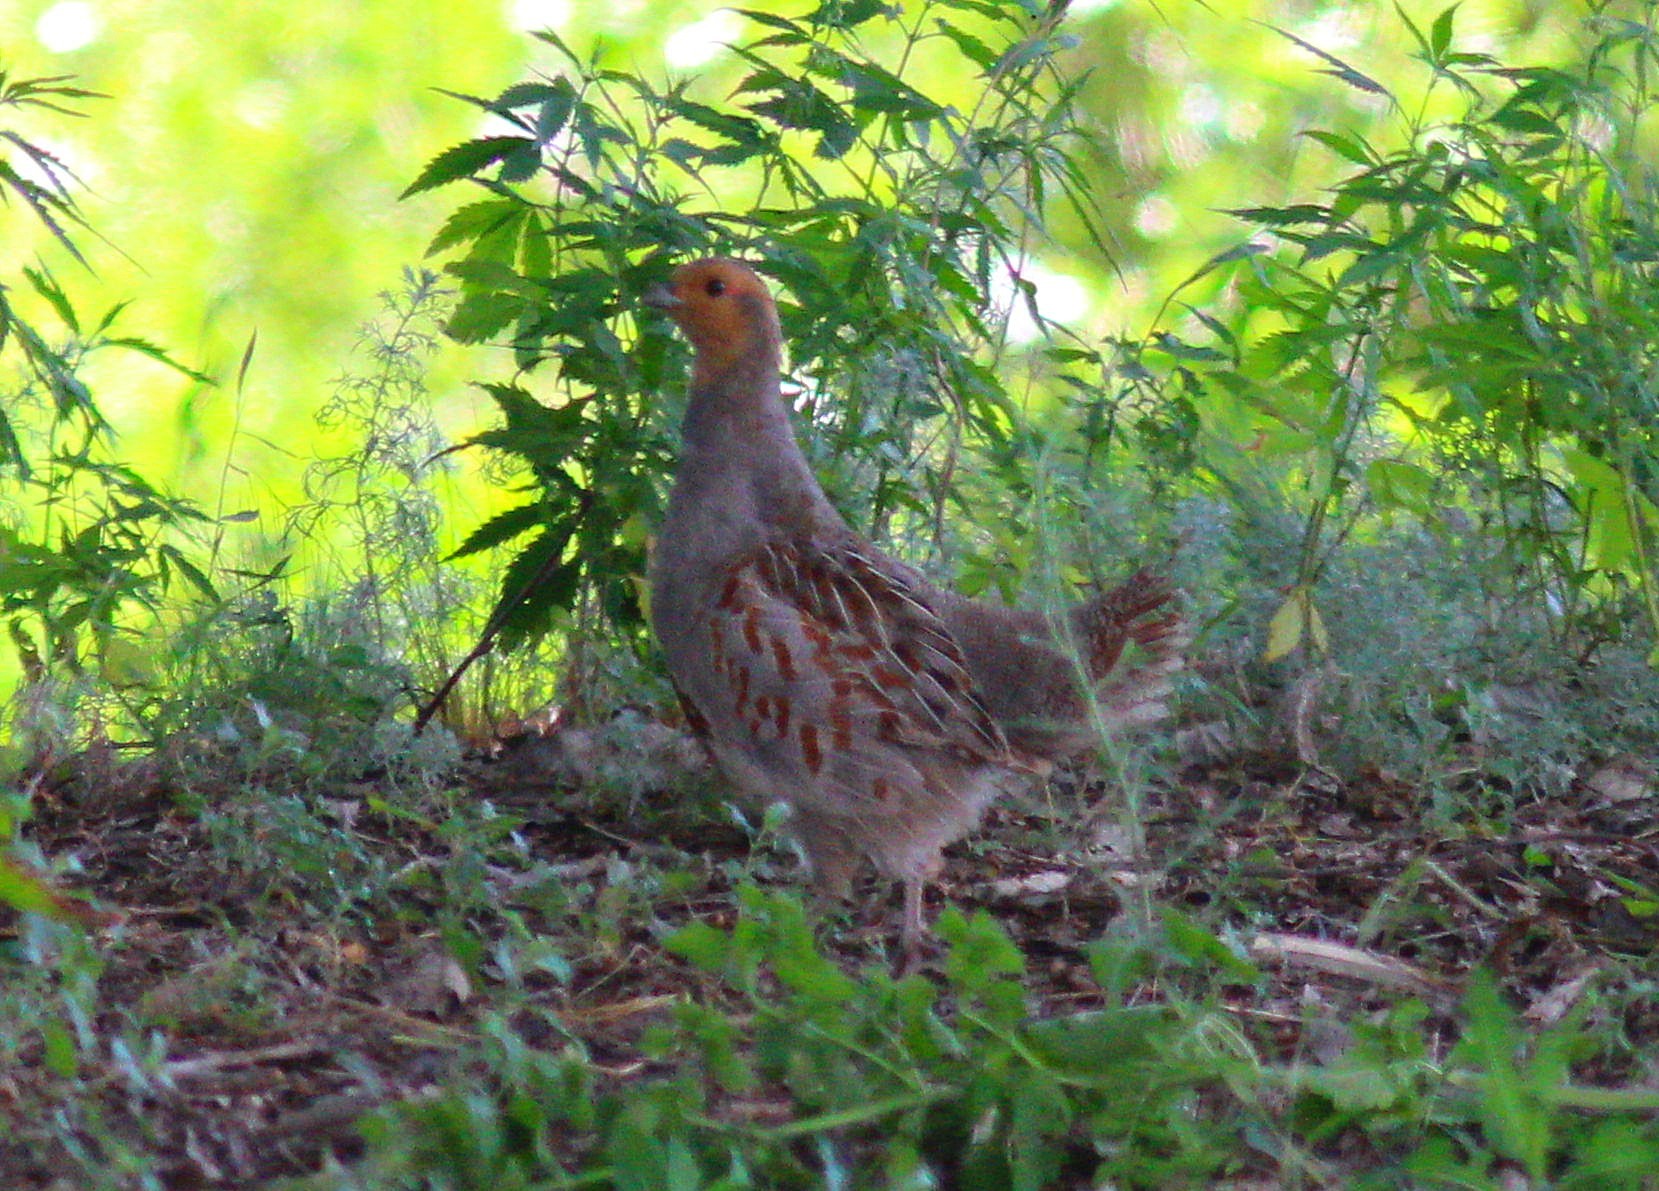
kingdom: Animalia
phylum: Chordata
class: Aves
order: Galliformes
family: Phasianidae
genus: Perdix
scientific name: Perdix perdix
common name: Grey partridge
